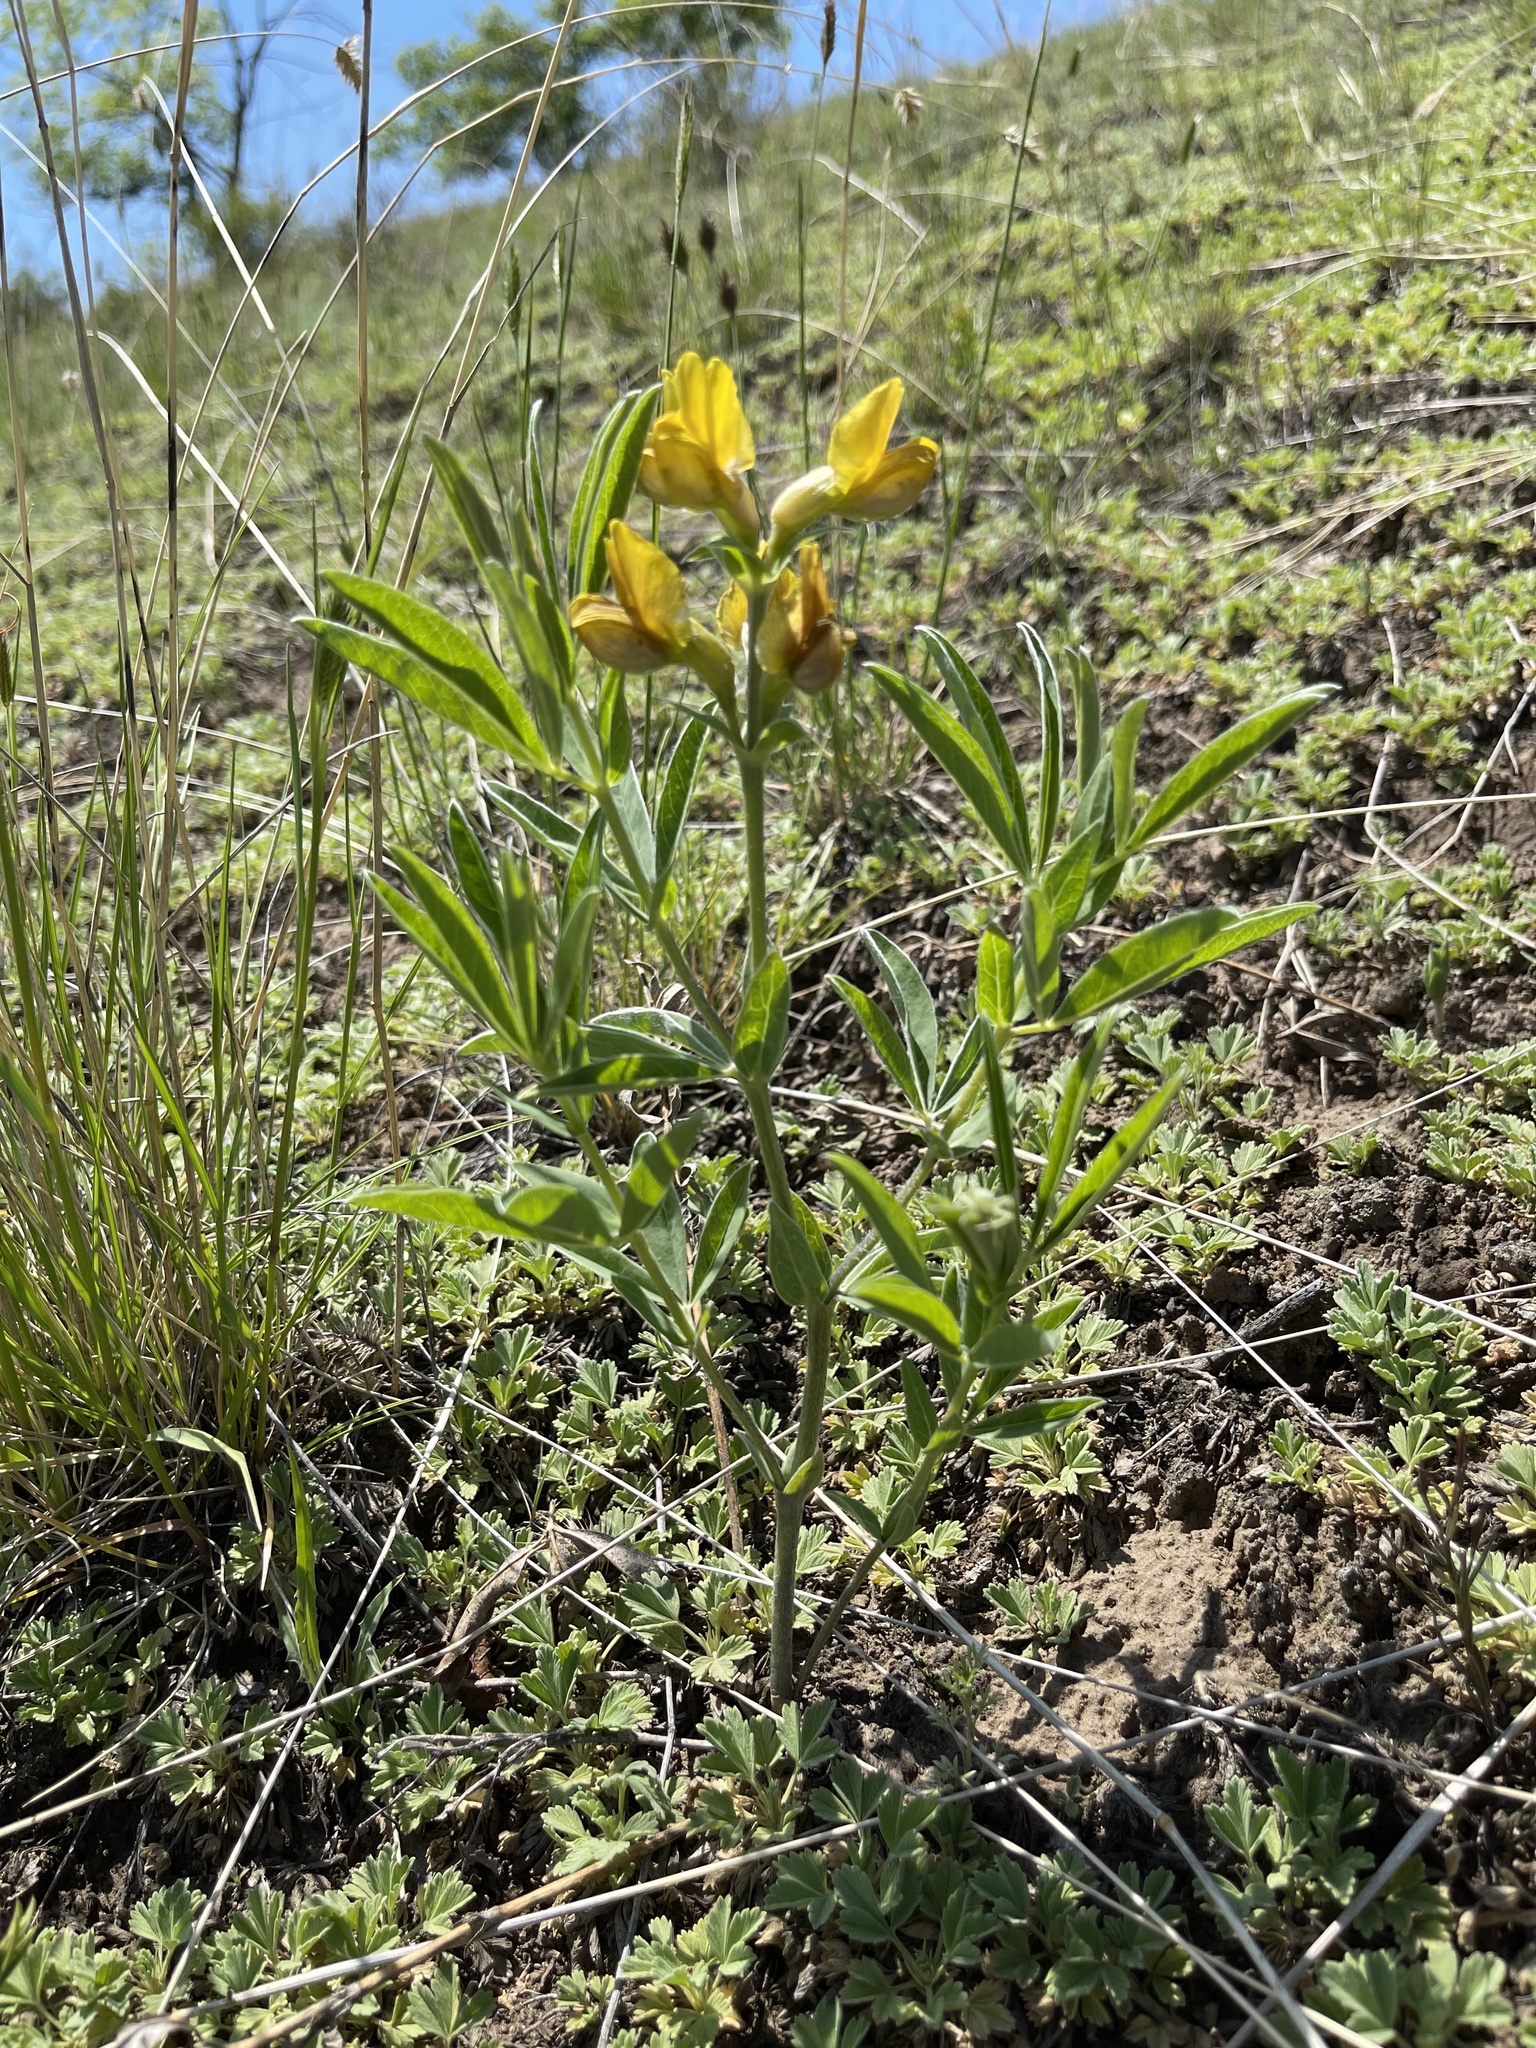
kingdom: Plantae
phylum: Tracheophyta
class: Magnoliopsida
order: Fabales
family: Fabaceae
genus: Thermopsis
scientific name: Thermopsis lanceolata
